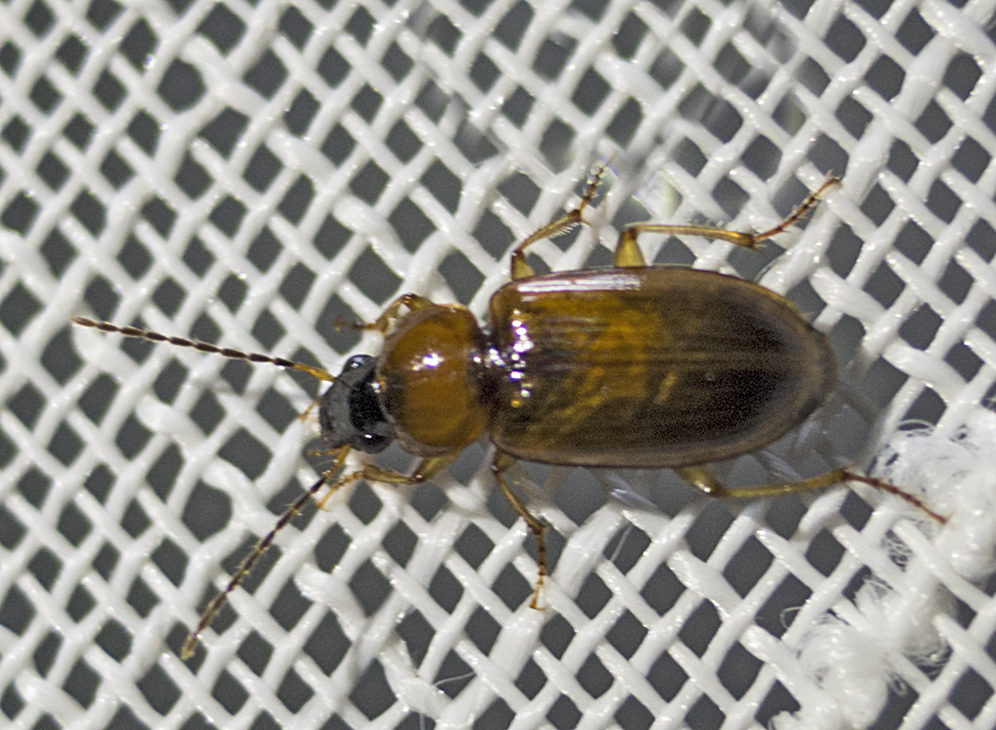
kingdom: Animalia
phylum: Arthropoda
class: Insecta
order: Coleoptera
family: Carabidae
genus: Stenolophus
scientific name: Stenolophus skrimshiranus
